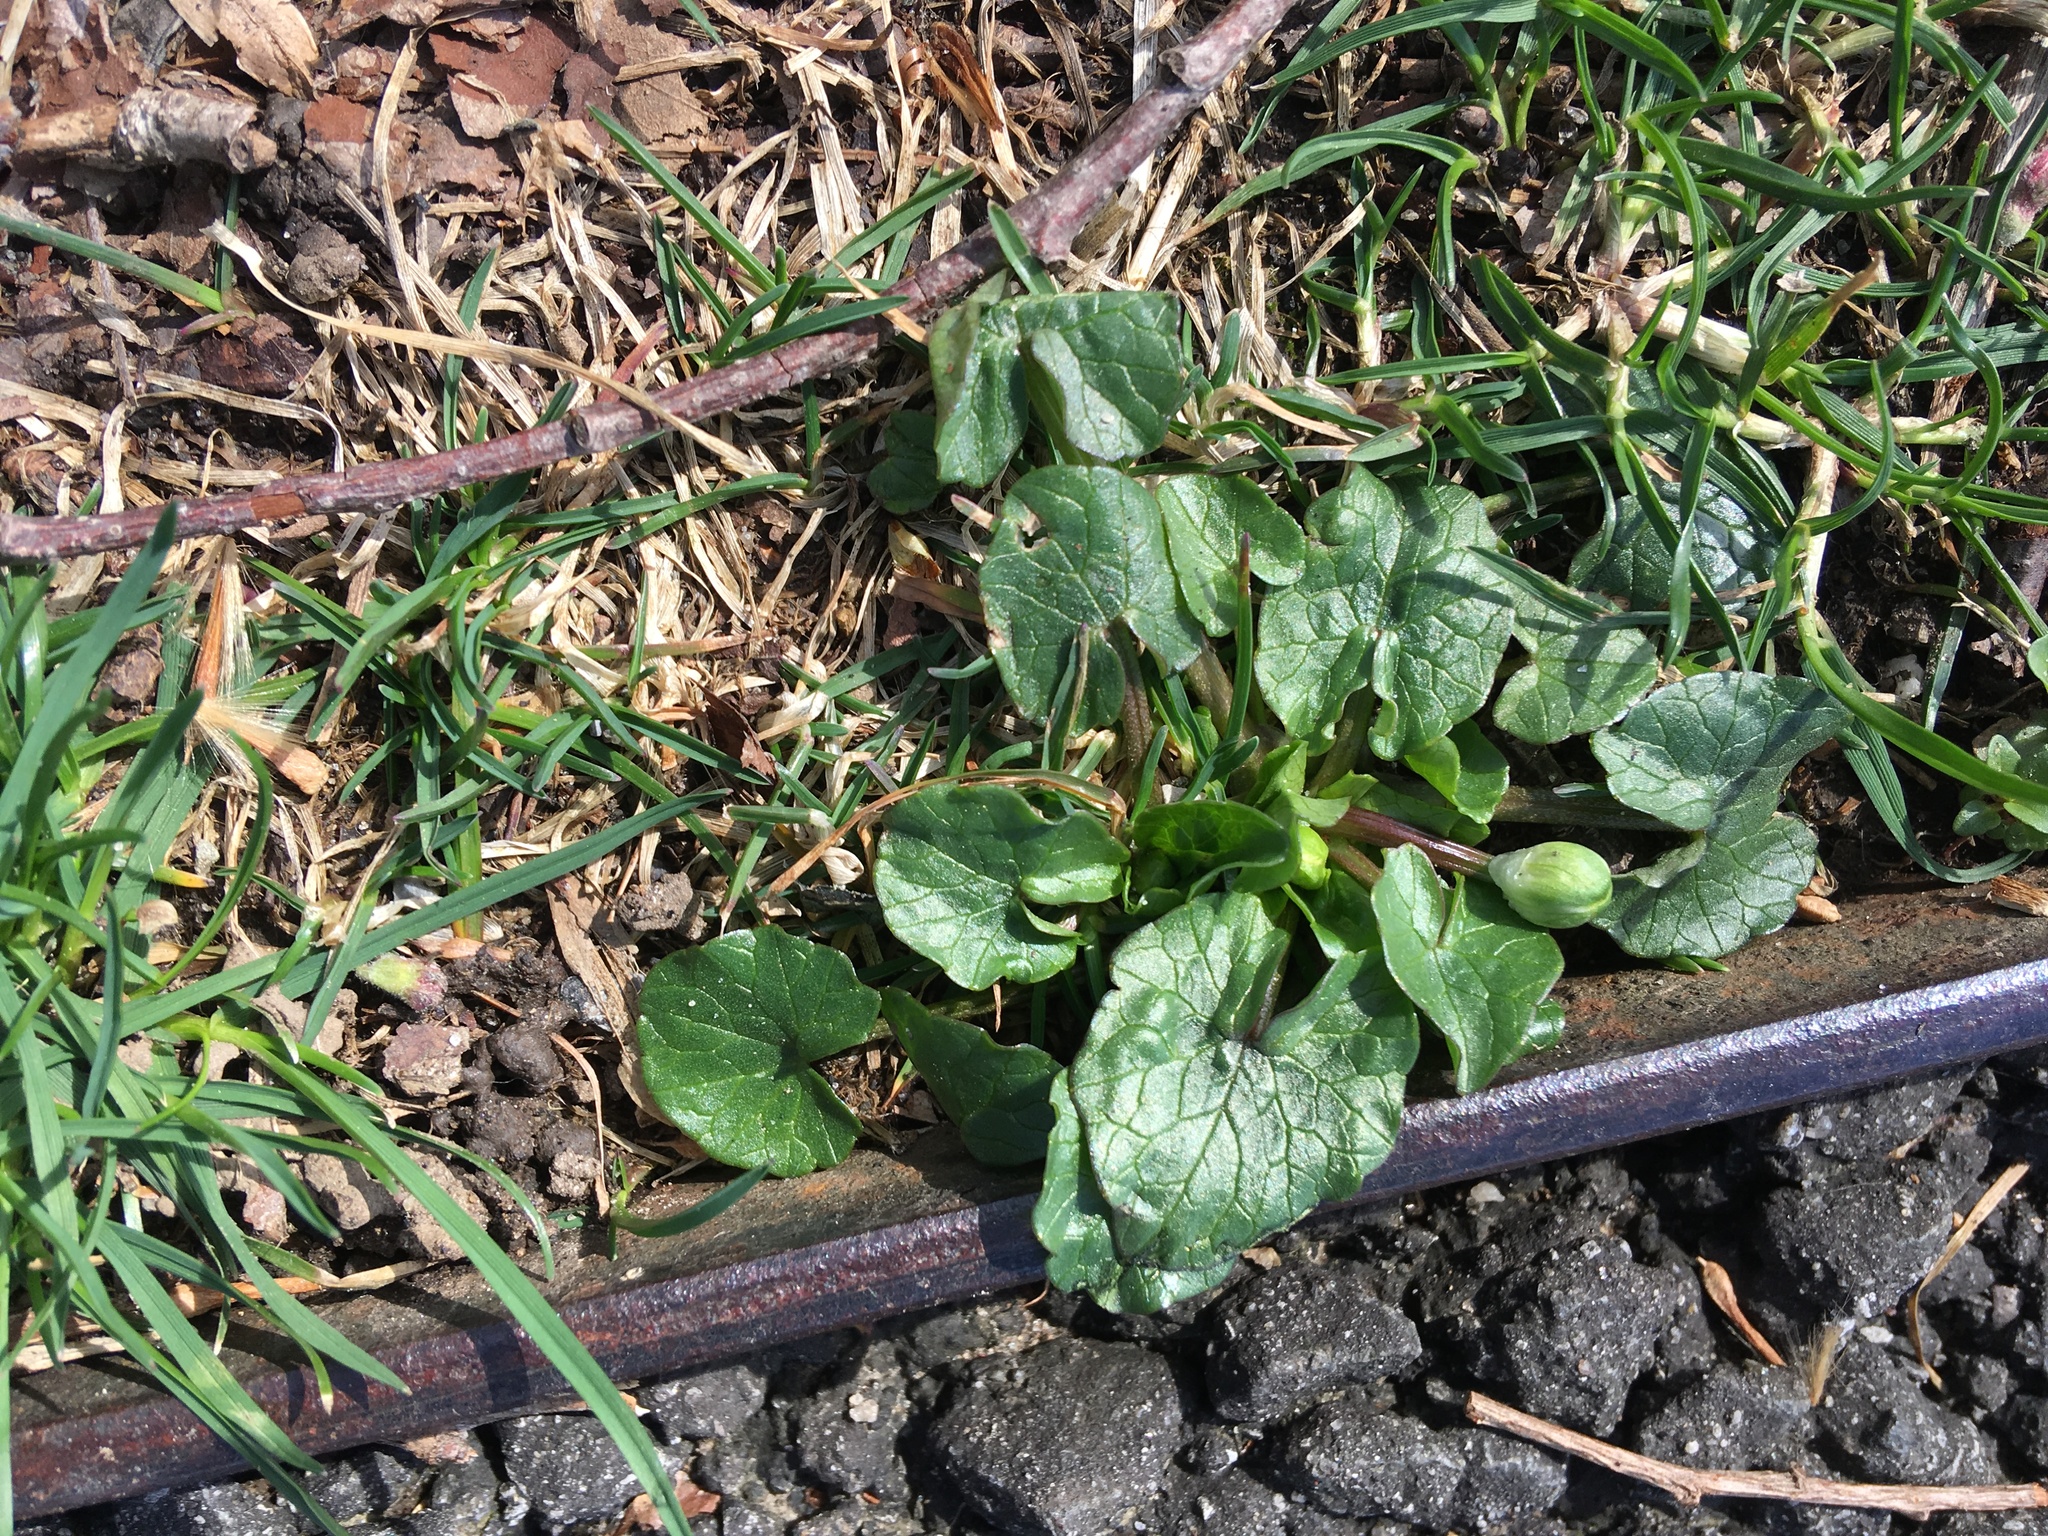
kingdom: Plantae
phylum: Tracheophyta
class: Magnoliopsida
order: Ranunculales
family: Ranunculaceae
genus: Ficaria
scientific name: Ficaria verna
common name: Lesser celandine
